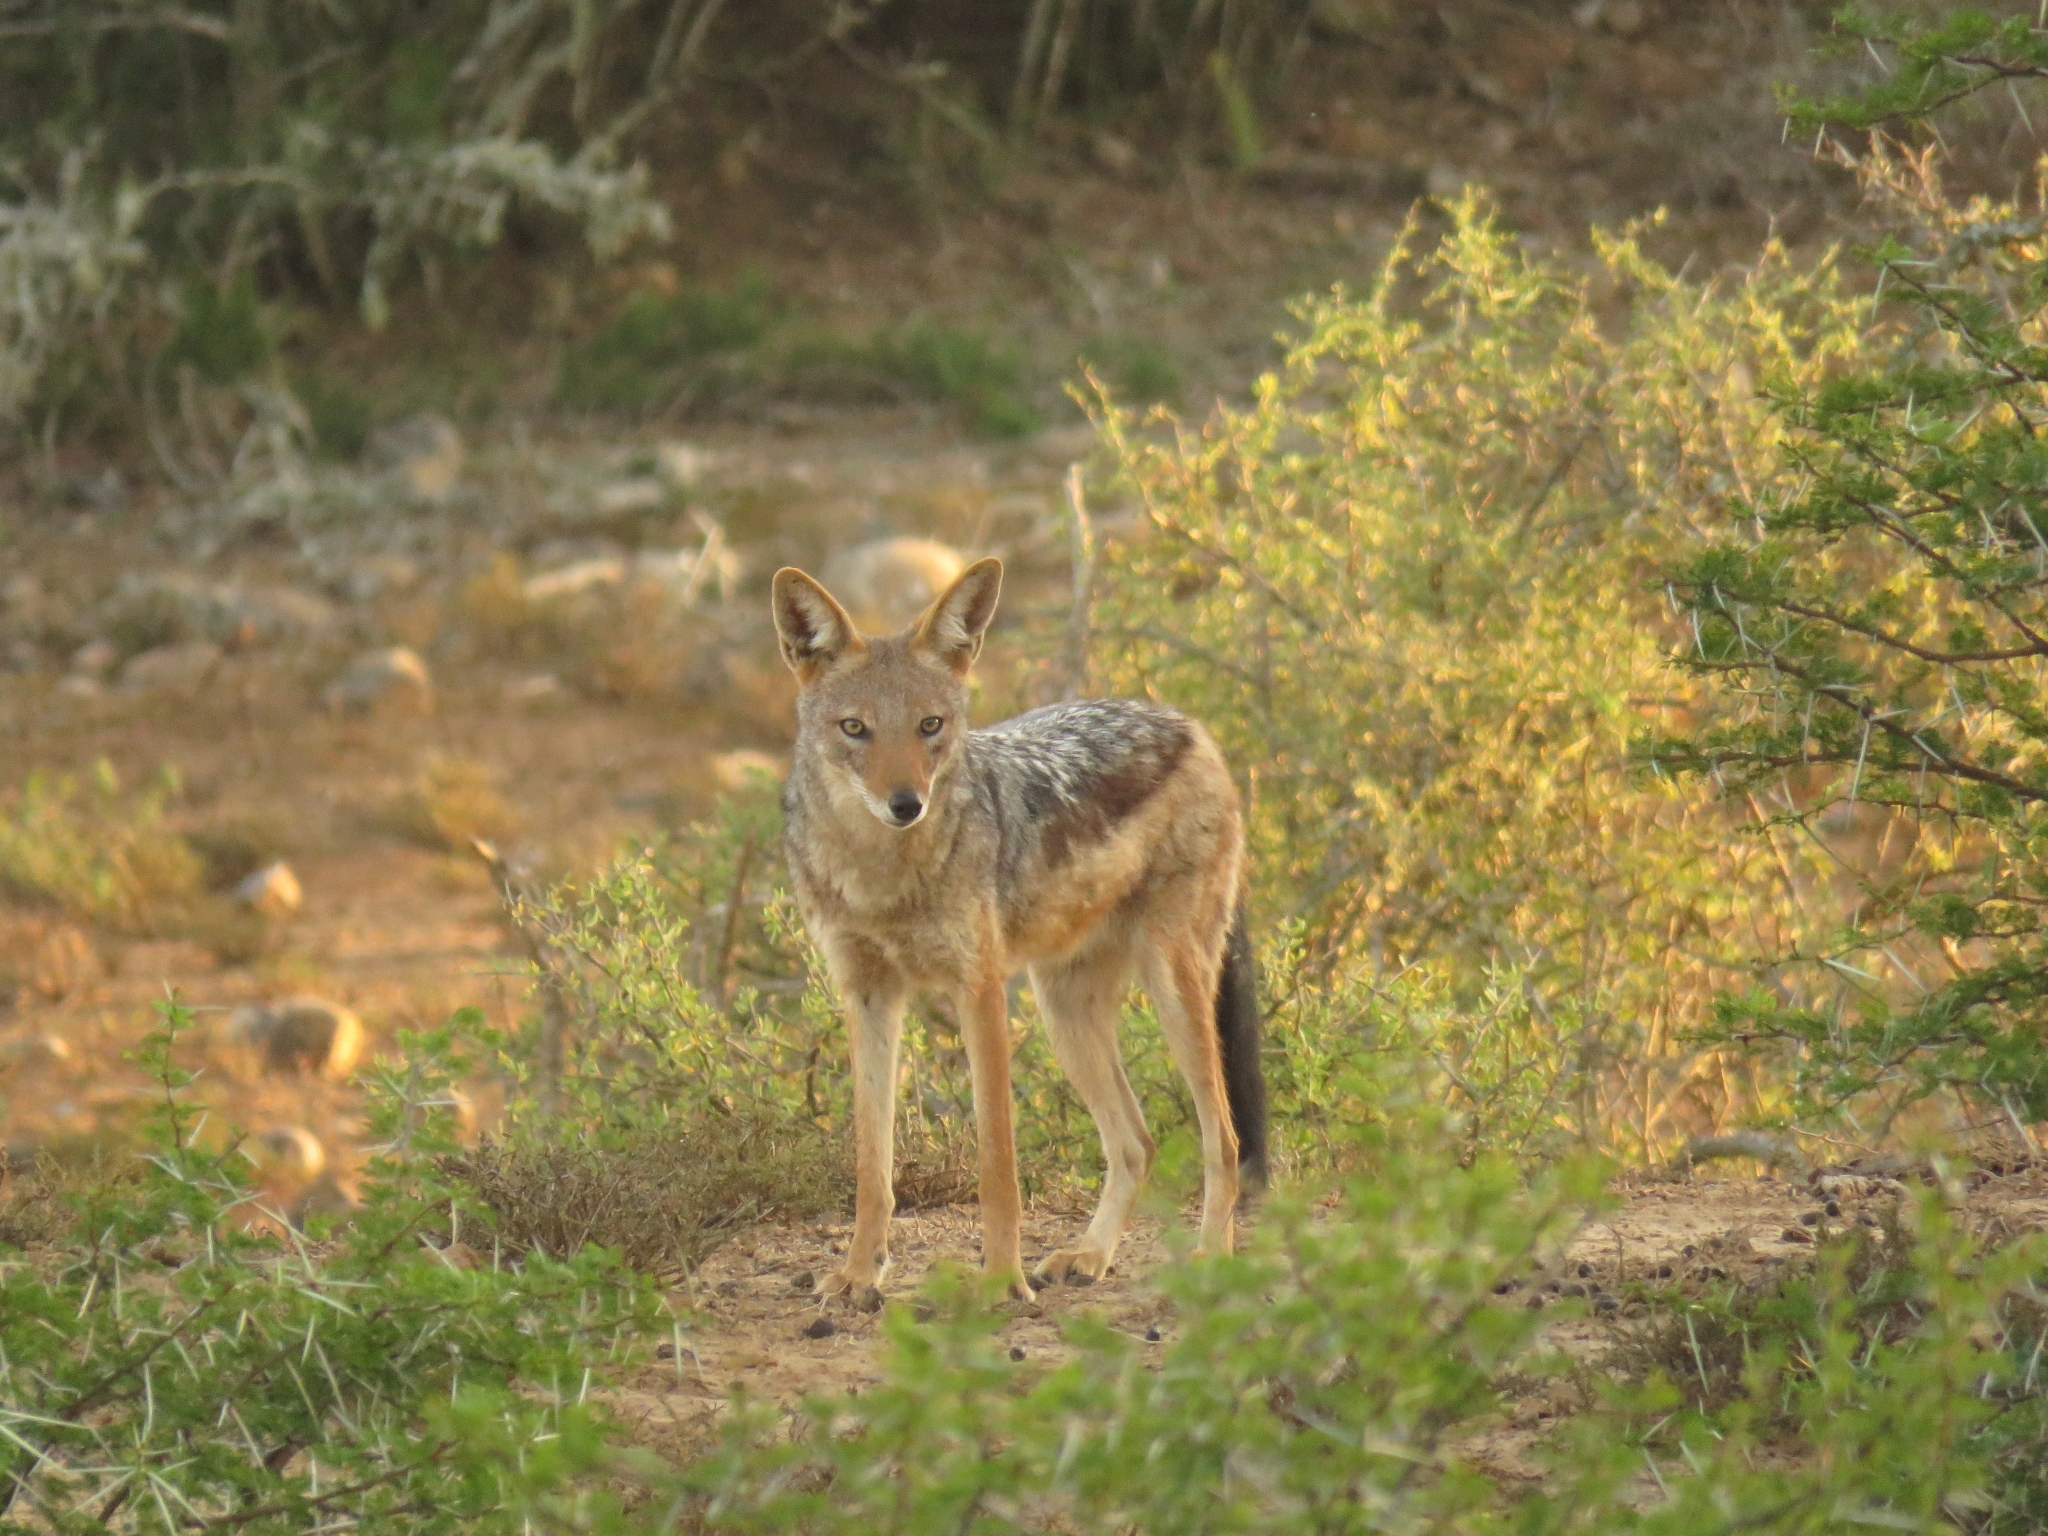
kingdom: Animalia
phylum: Chordata
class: Mammalia
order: Carnivora
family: Canidae
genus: Lupulella
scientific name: Lupulella
